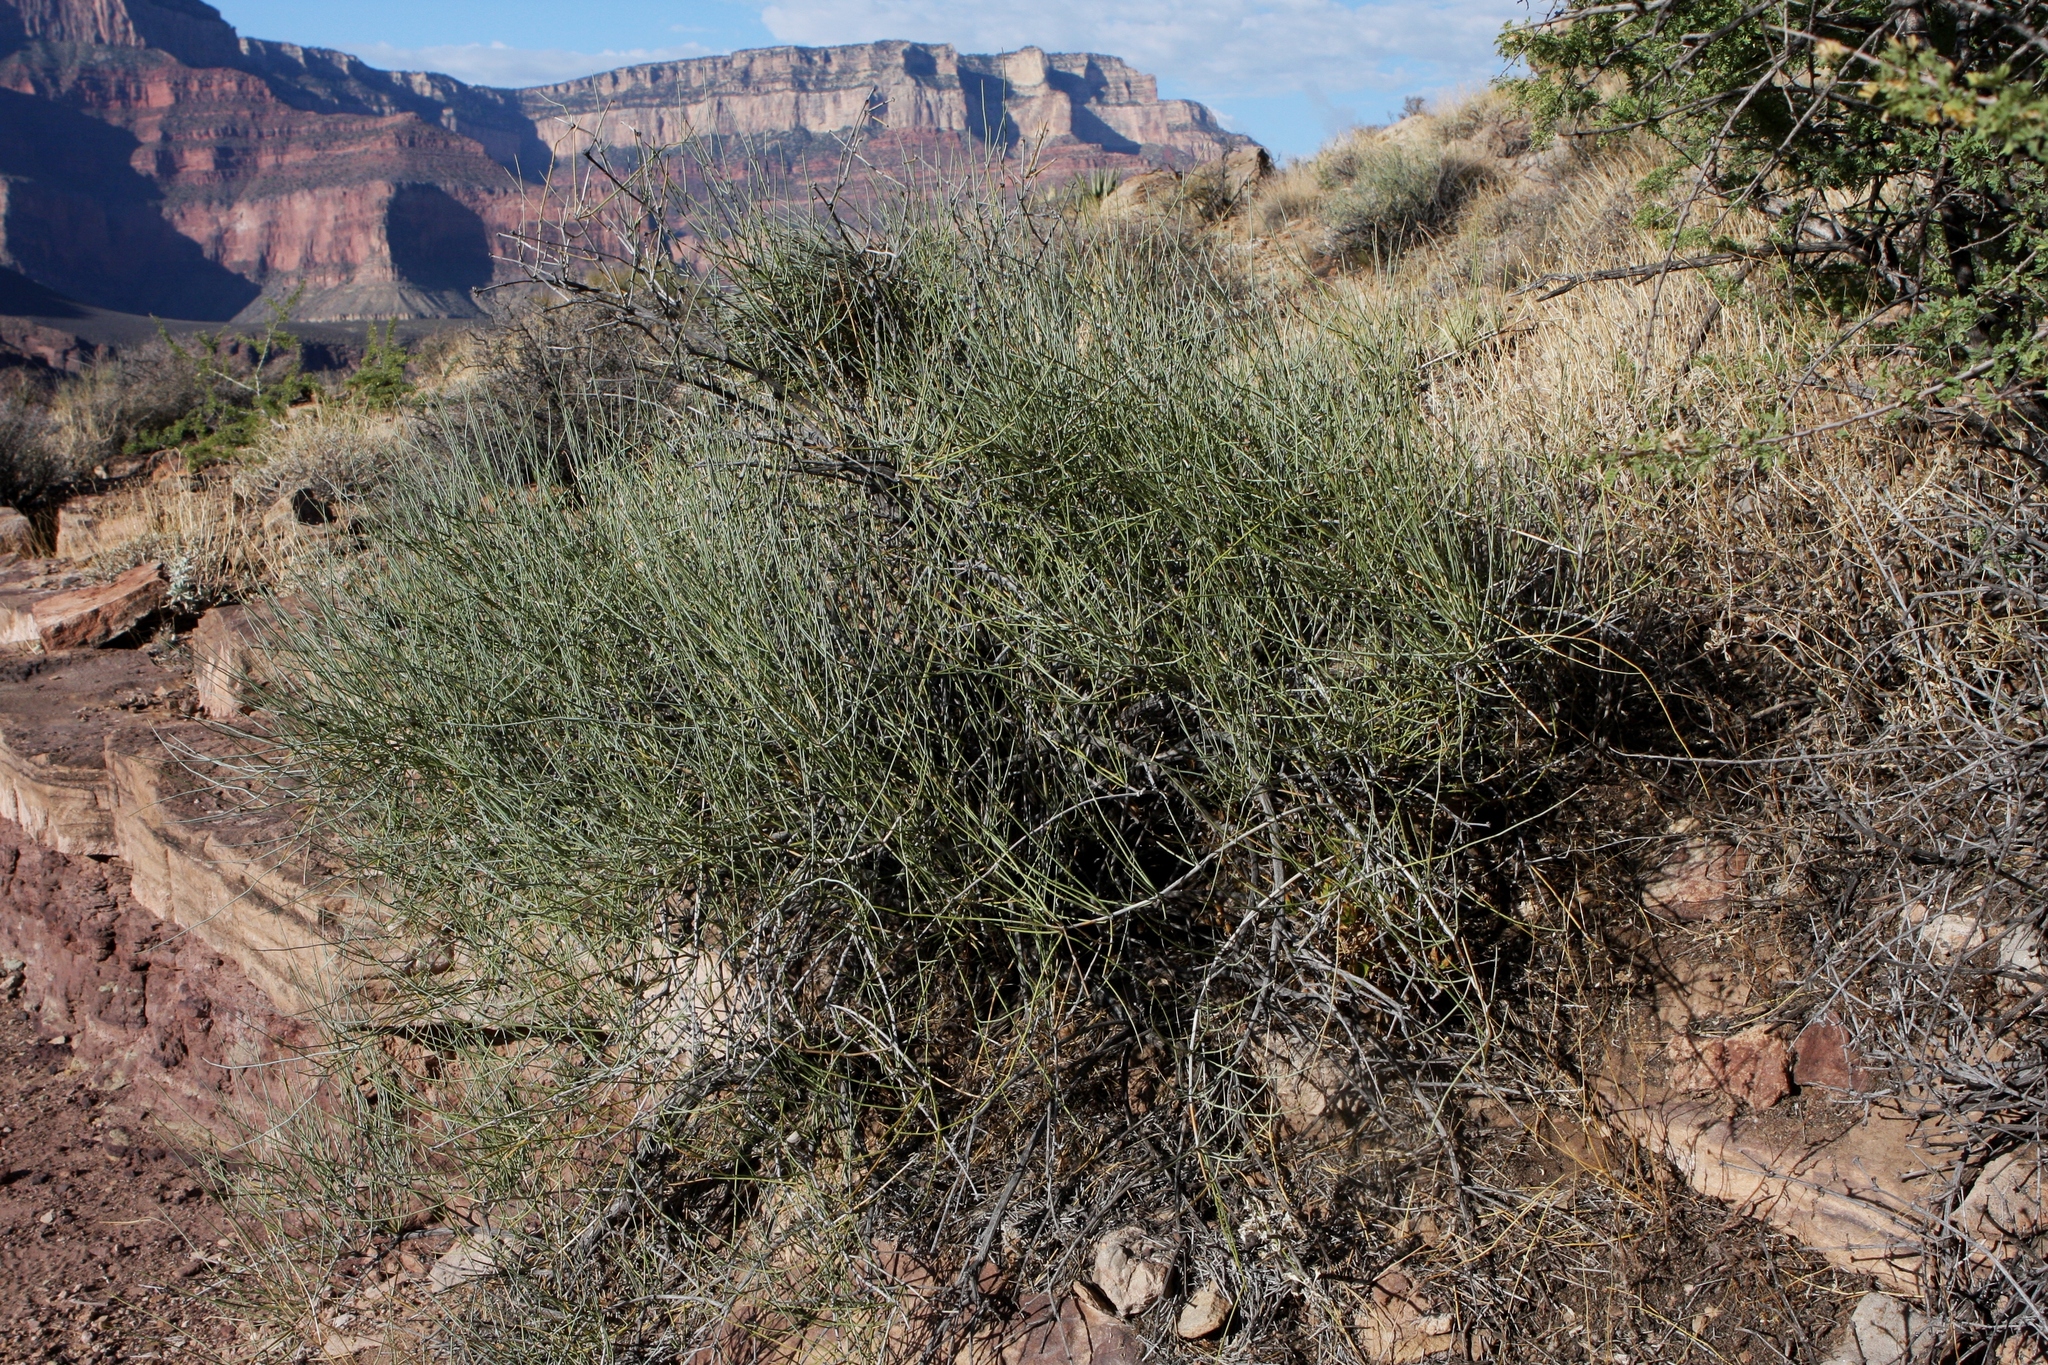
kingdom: Plantae
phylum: Tracheophyta
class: Gnetopsida
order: Ephedrales
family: Ephedraceae
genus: Ephedra
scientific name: Ephedra viridis
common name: Green ephedra
